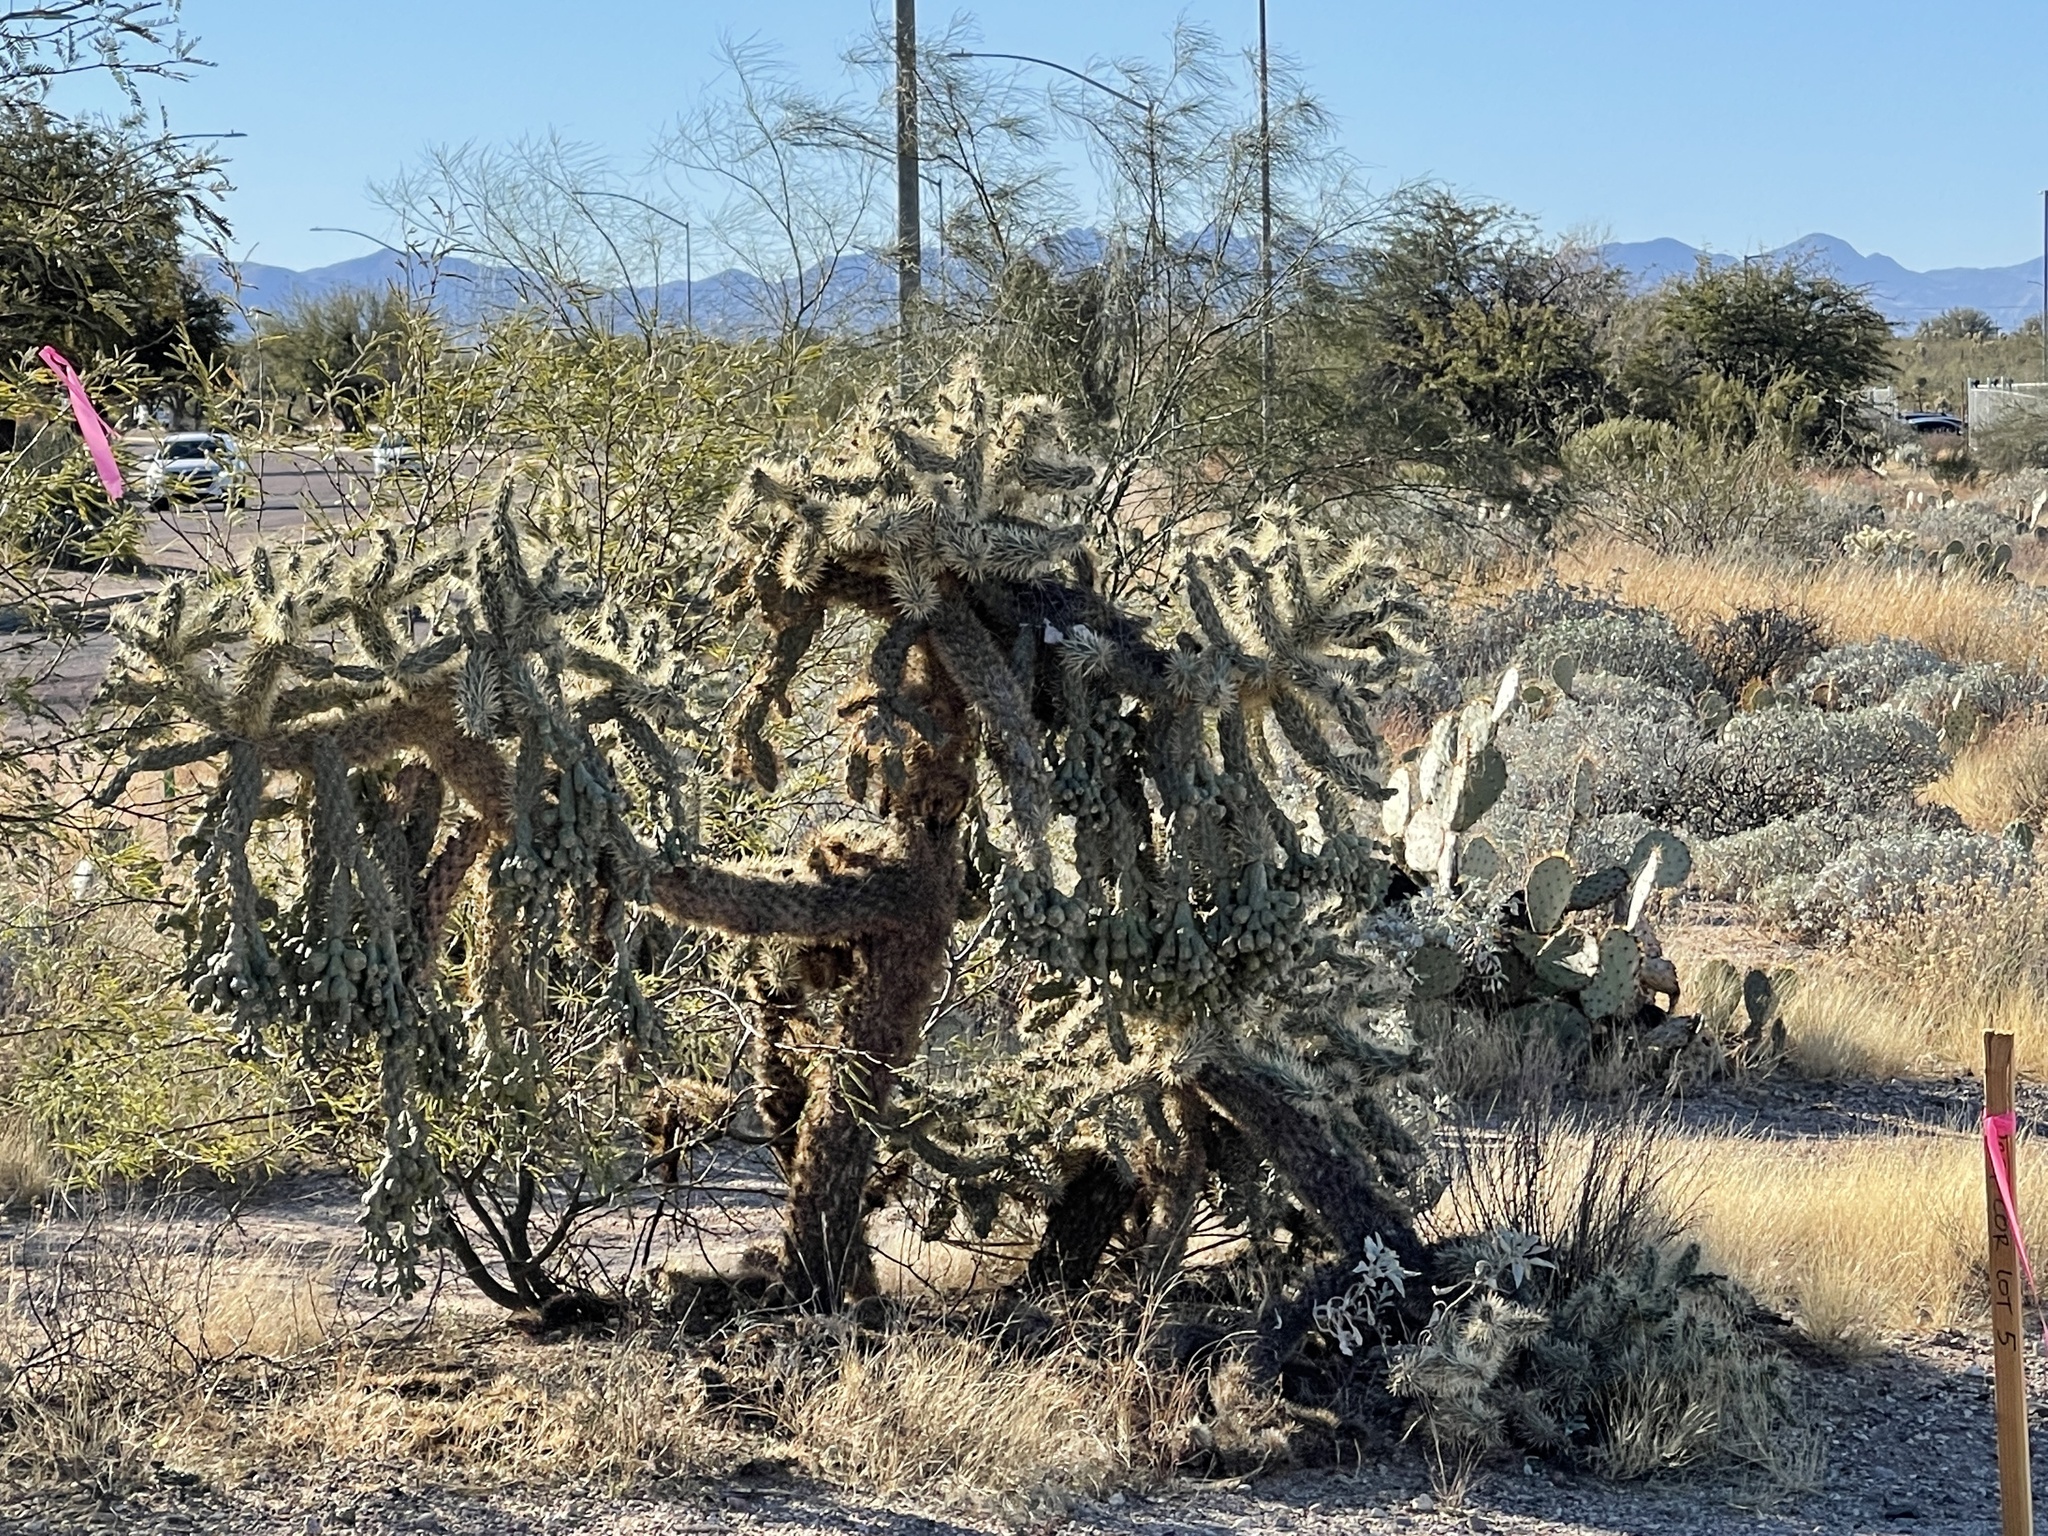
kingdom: Plantae
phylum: Tracheophyta
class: Magnoliopsida
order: Caryophyllales
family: Cactaceae
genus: Cylindropuntia
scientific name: Cylindropuntia fulgida
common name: Jumping cholla
